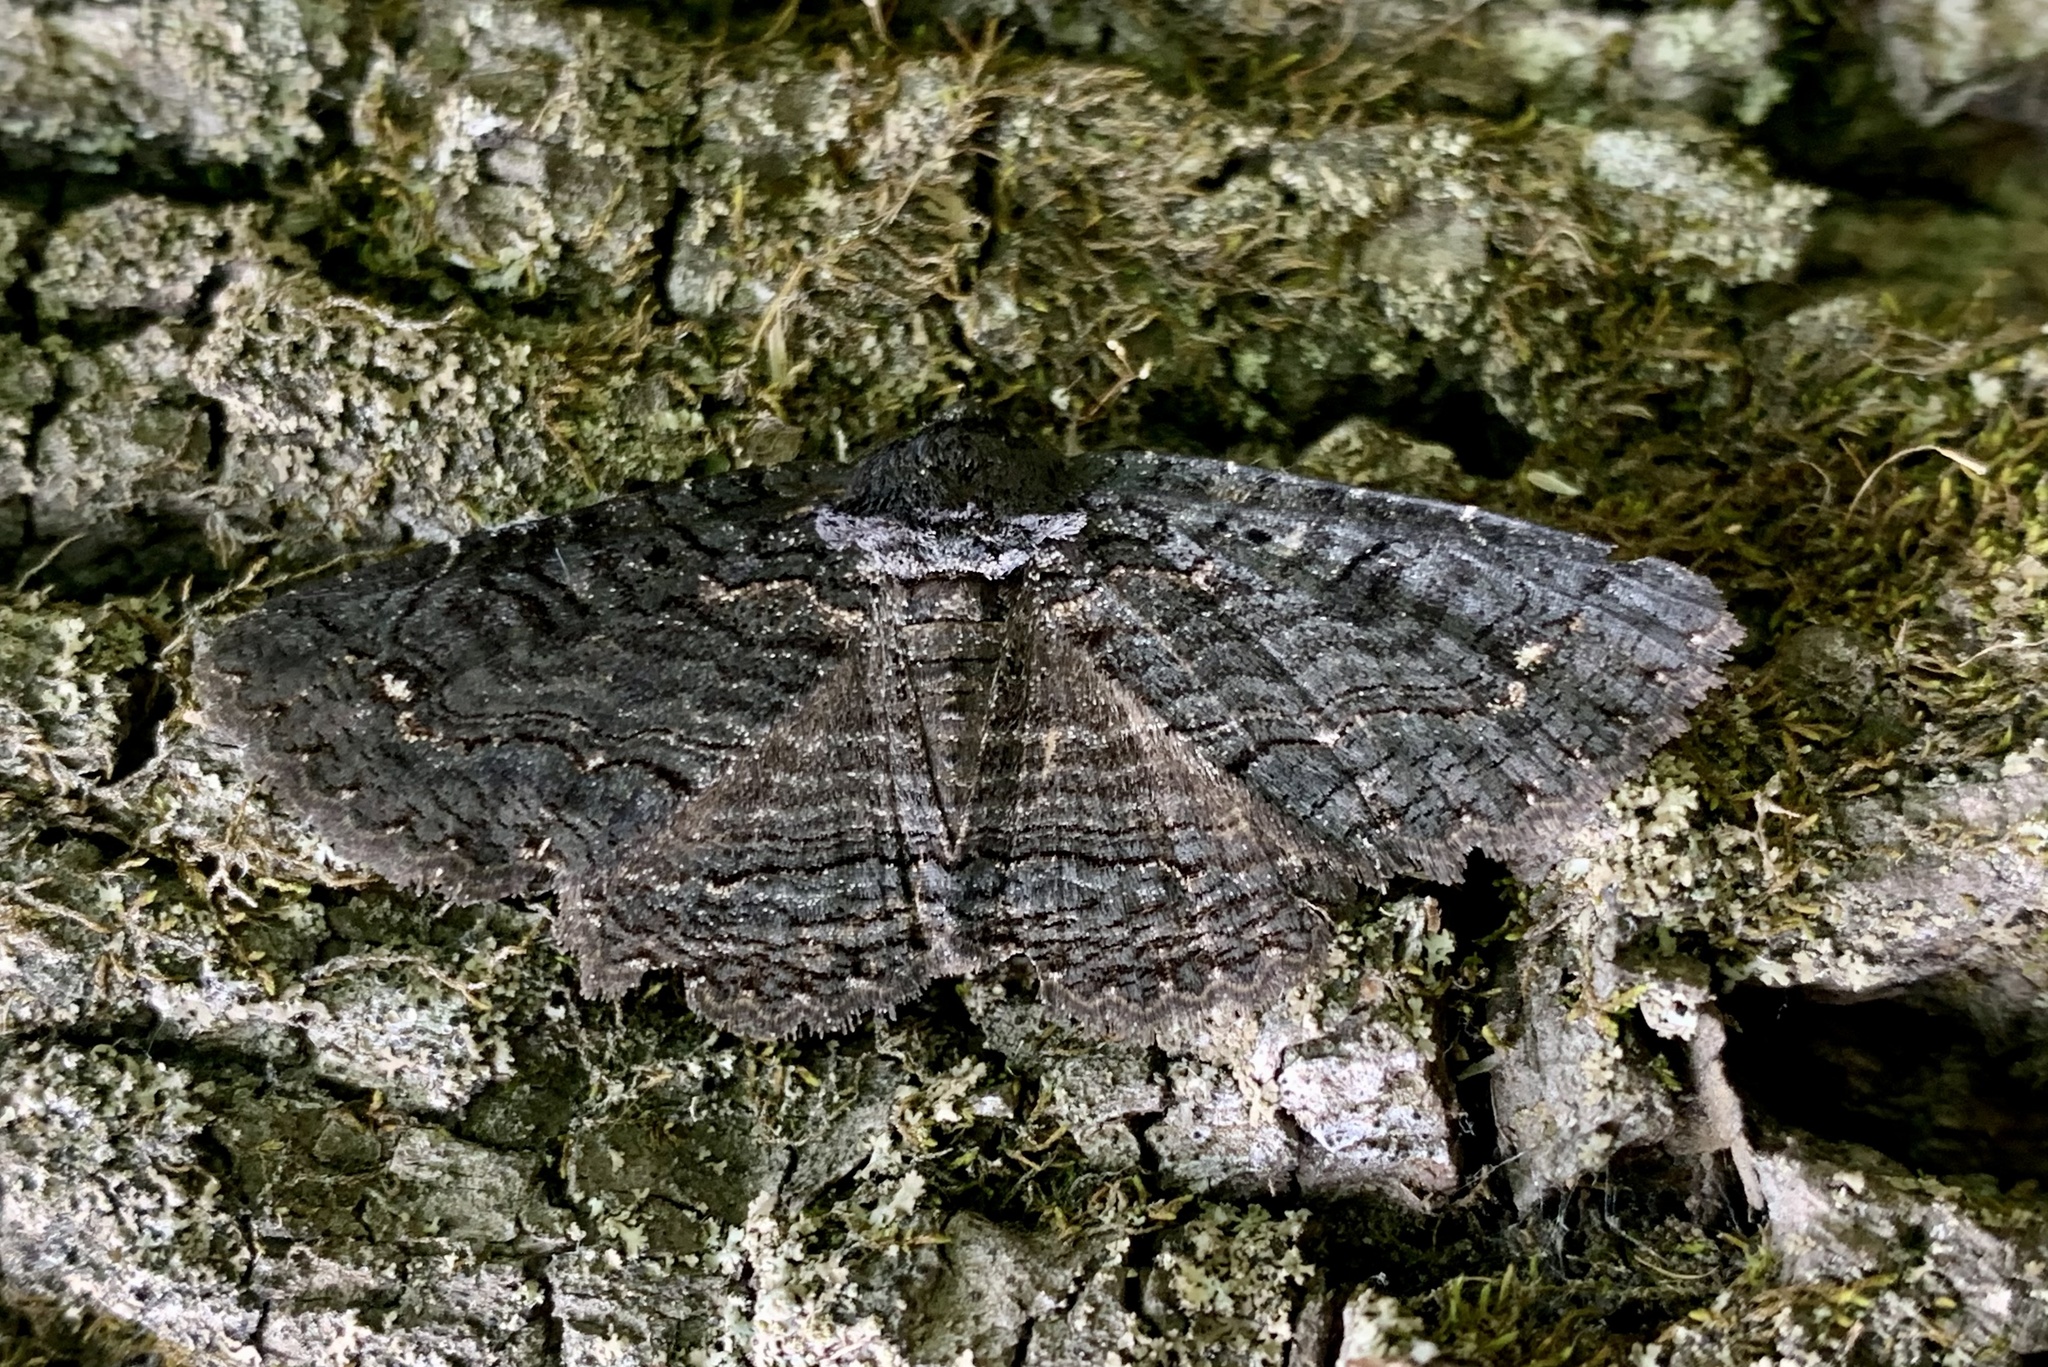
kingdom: Animalia
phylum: Arthropoda
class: Insecta
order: Lepidoptera
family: Erebidae
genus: Zale
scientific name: Zale undularis
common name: Black zale moth
